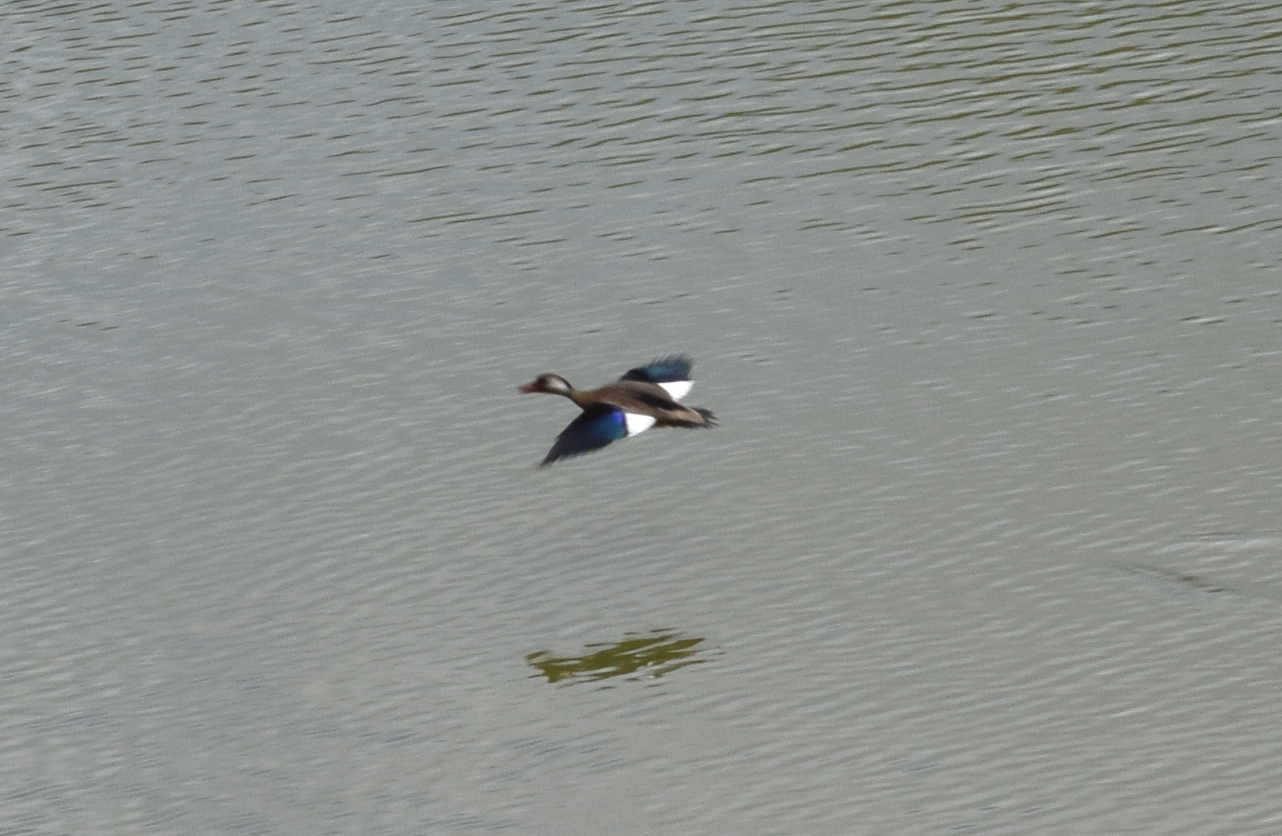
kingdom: Animalia
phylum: Chordata
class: Aves
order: Anseriformes
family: Anatidae
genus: Amazonetta
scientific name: Amazonetta brasiliensis
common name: Brazilian teal
